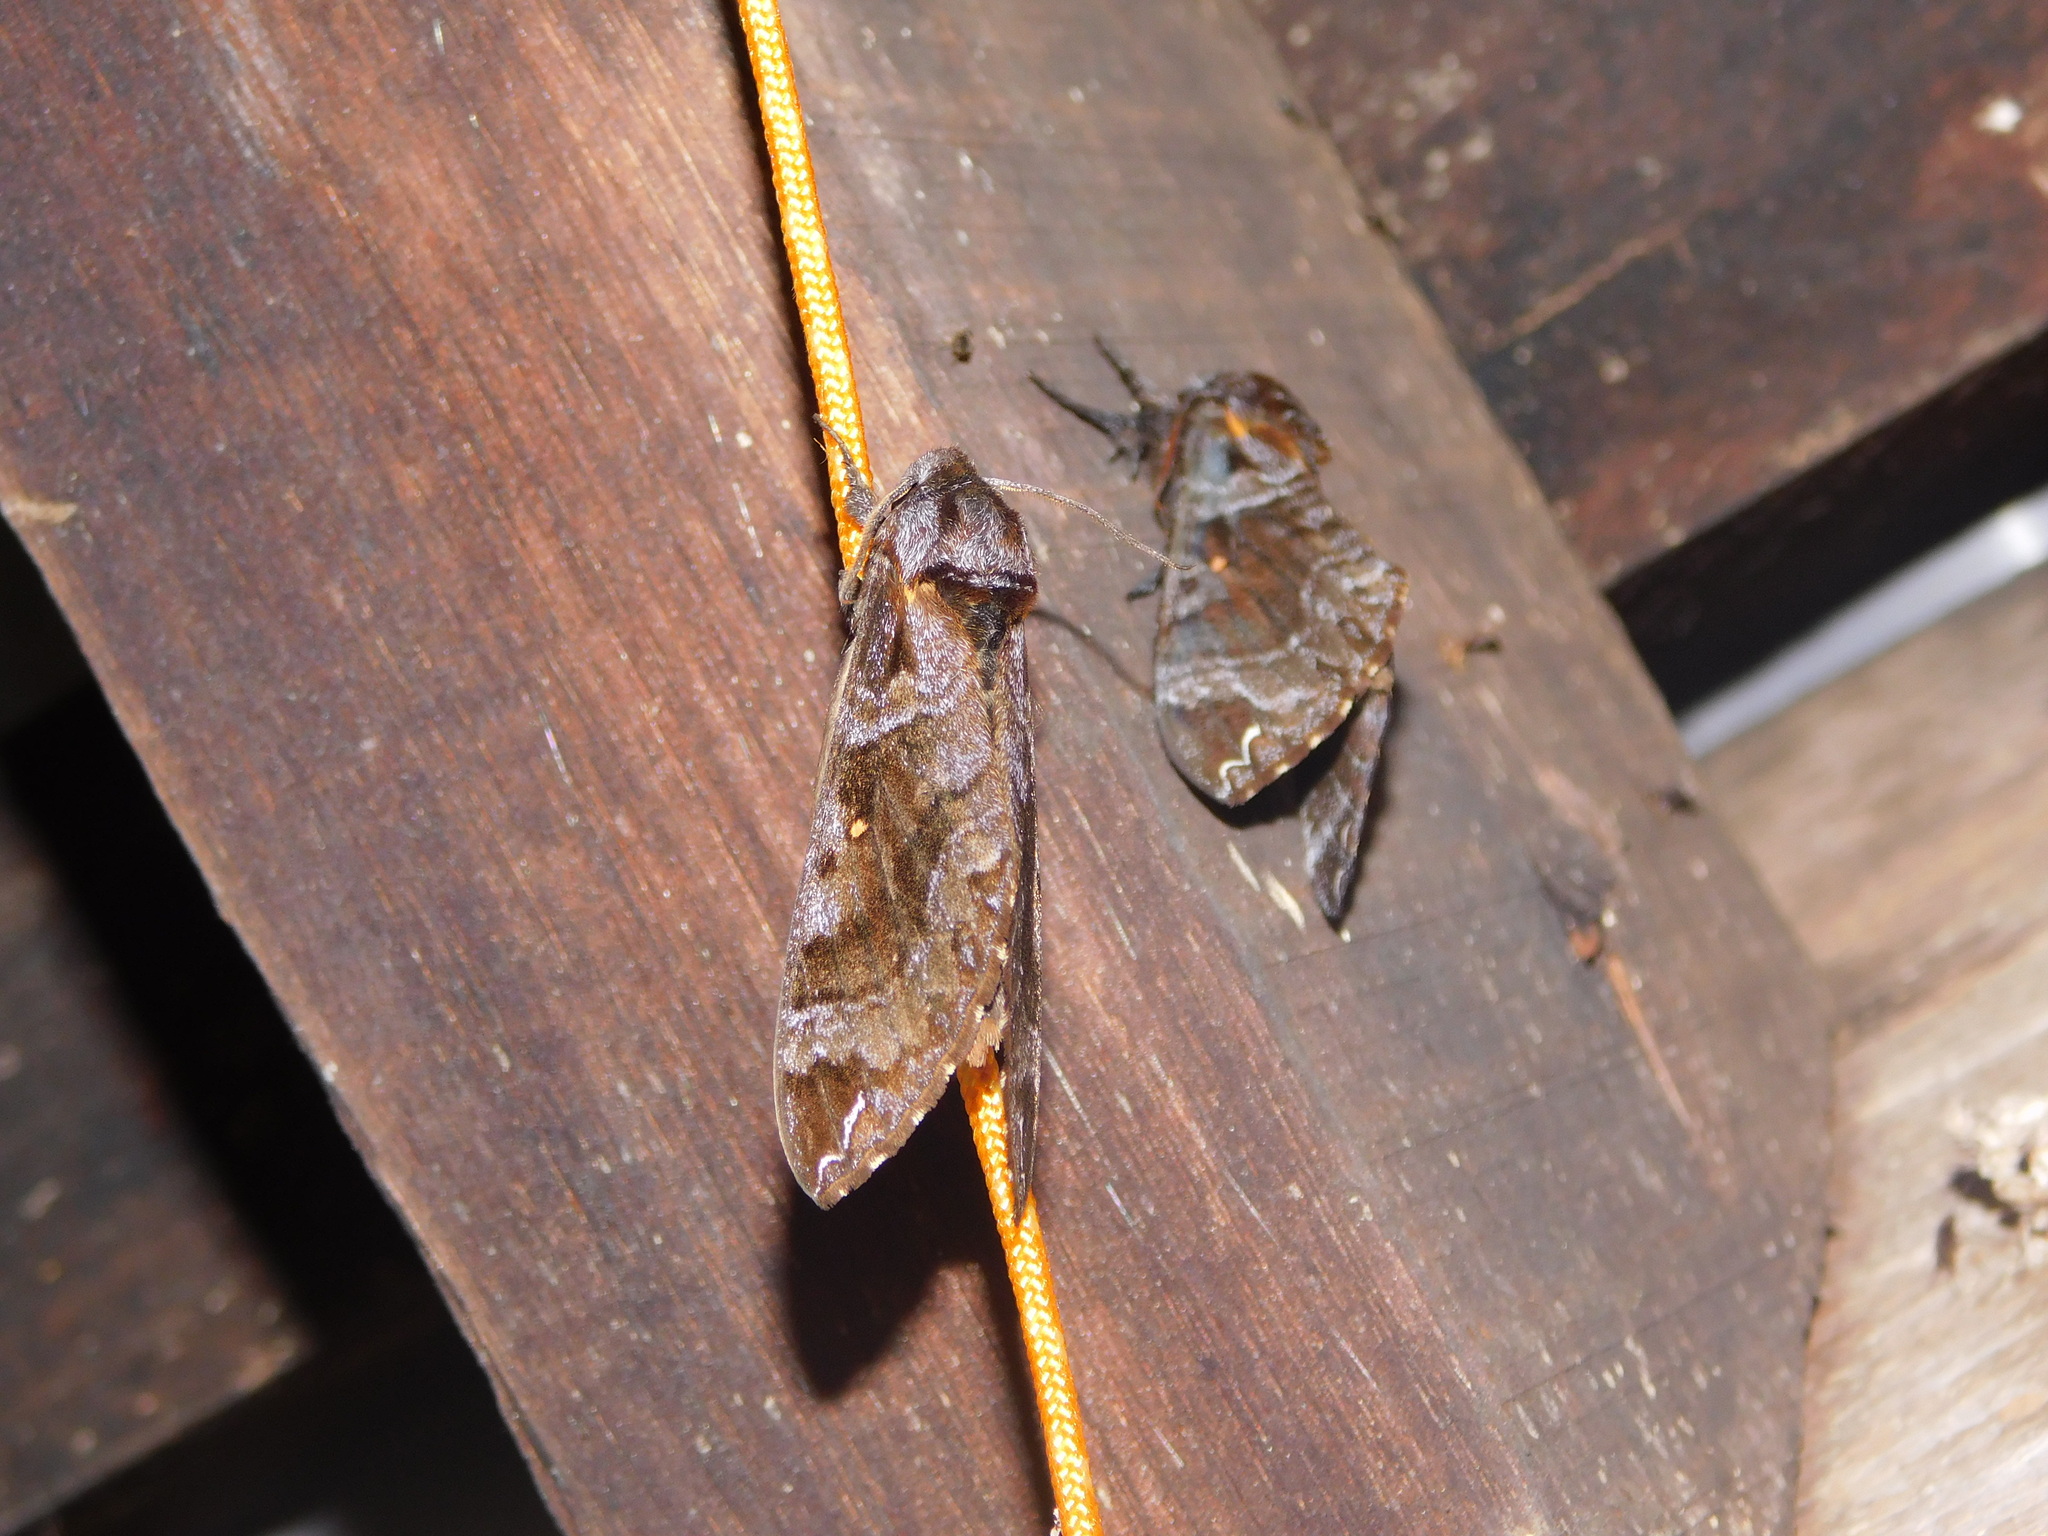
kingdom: Animalia
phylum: Arthropoda
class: Insecta
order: Lepidoptera
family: Sphingidae
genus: Dovania
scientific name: Dovania poecila
